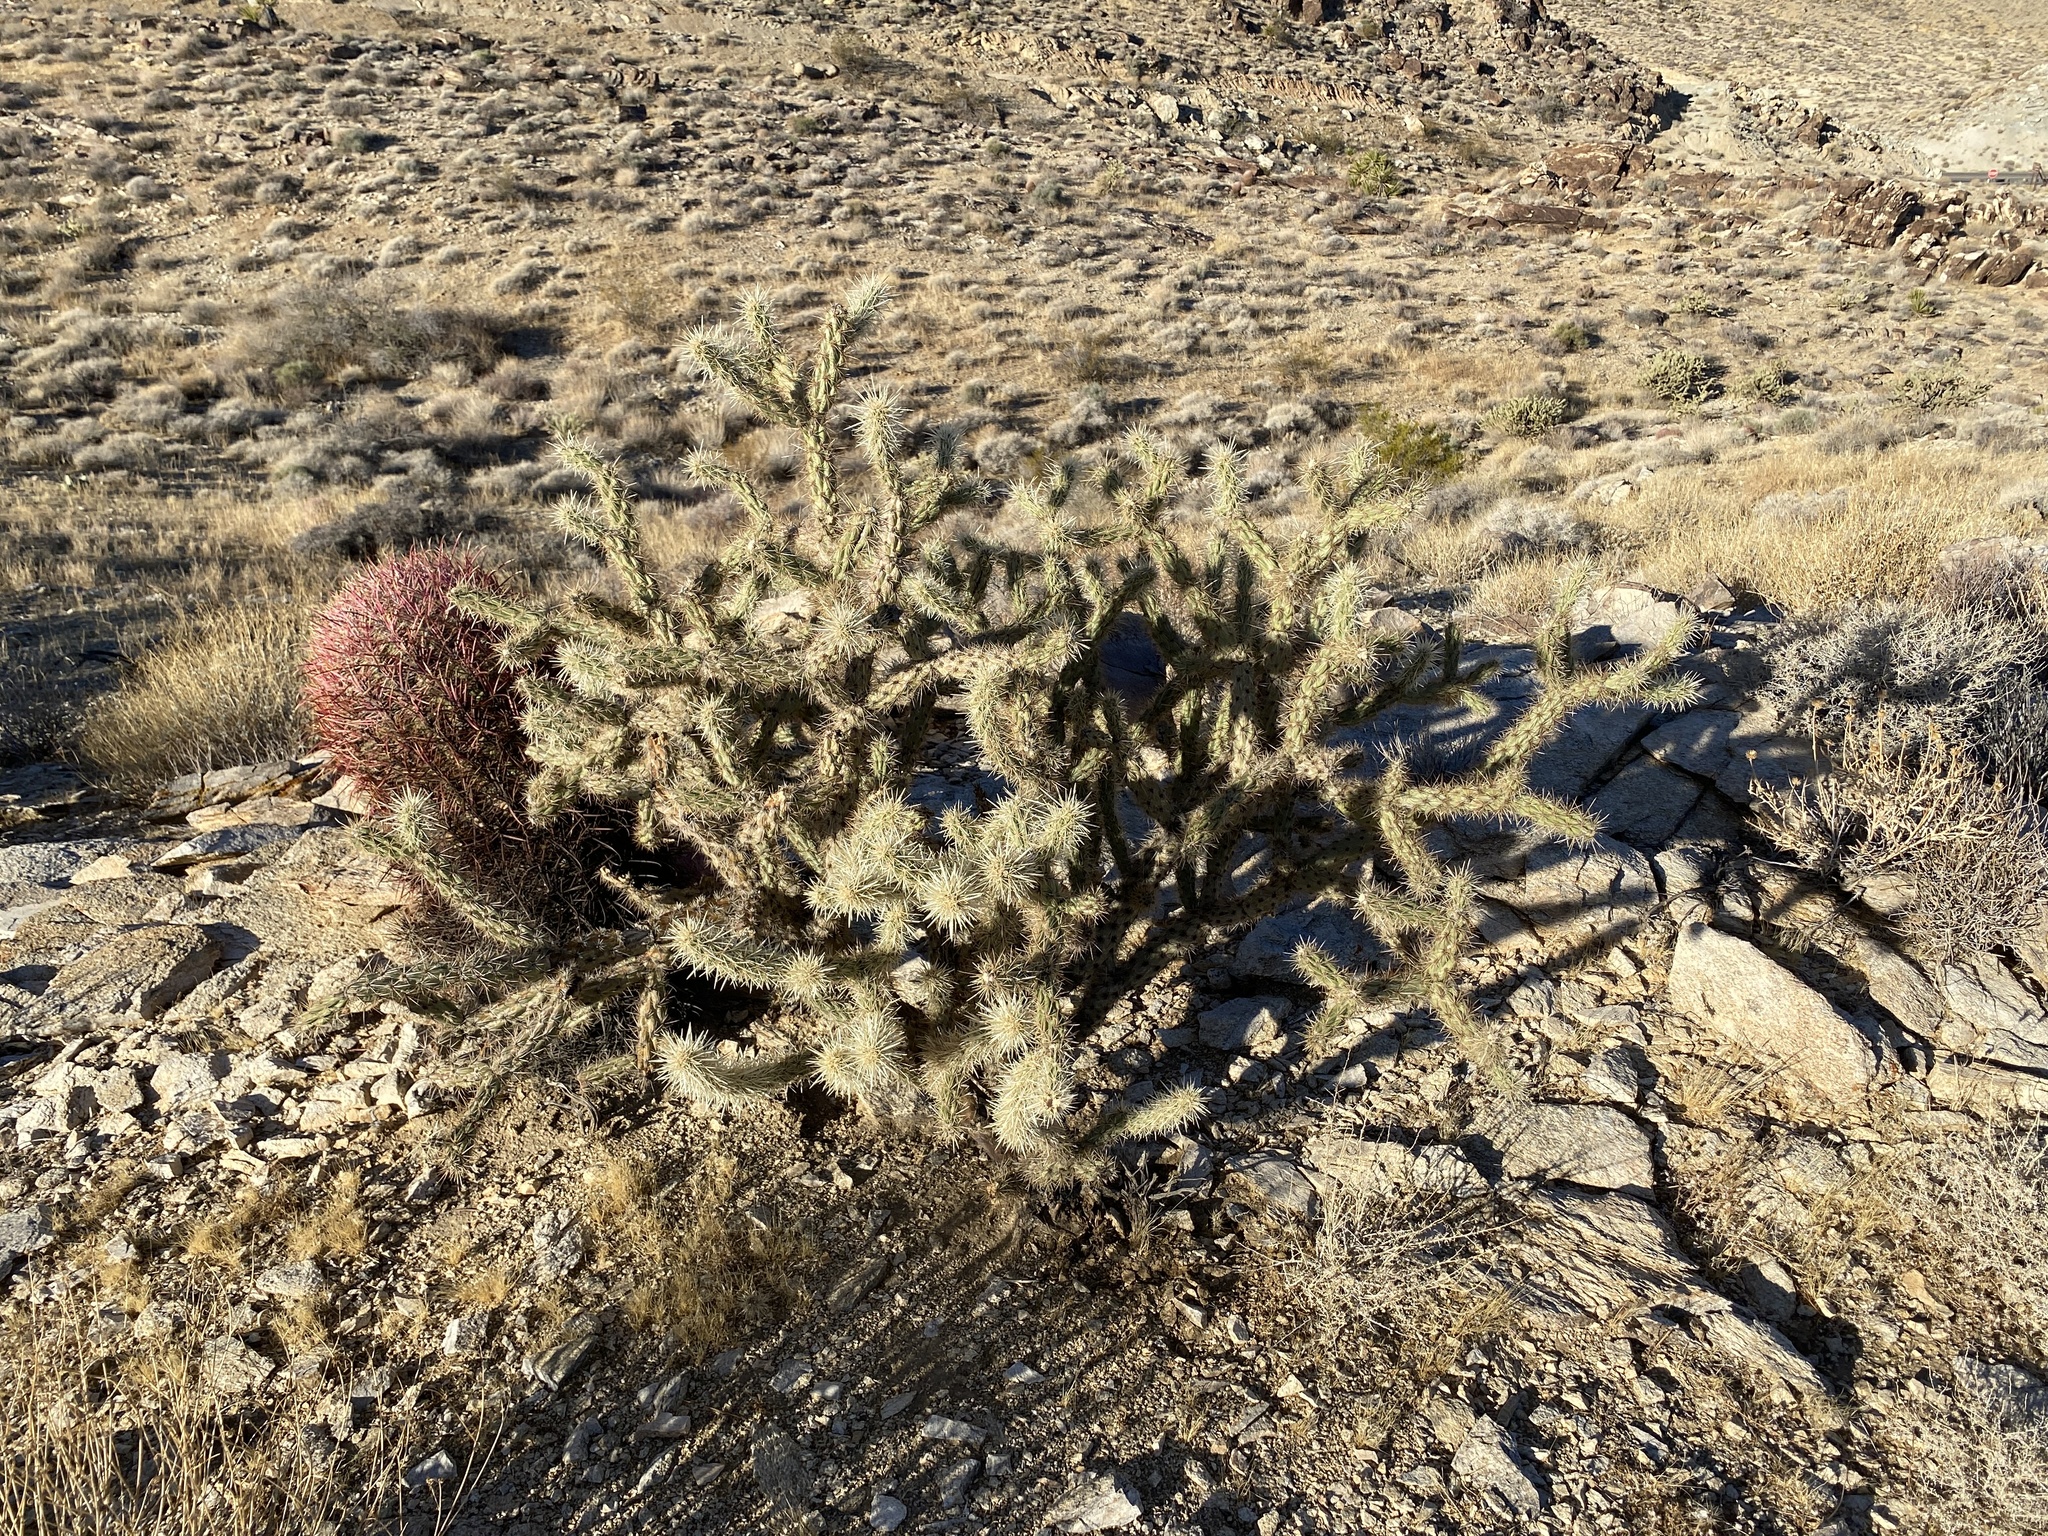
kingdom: Plantae
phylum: Tracheophyta
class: Magnoliopsida
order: Caryophyllales
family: Cactaceae
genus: Cylindropuntia
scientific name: Cylindropuntia acanthocarpa
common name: Buckhorn cholla
